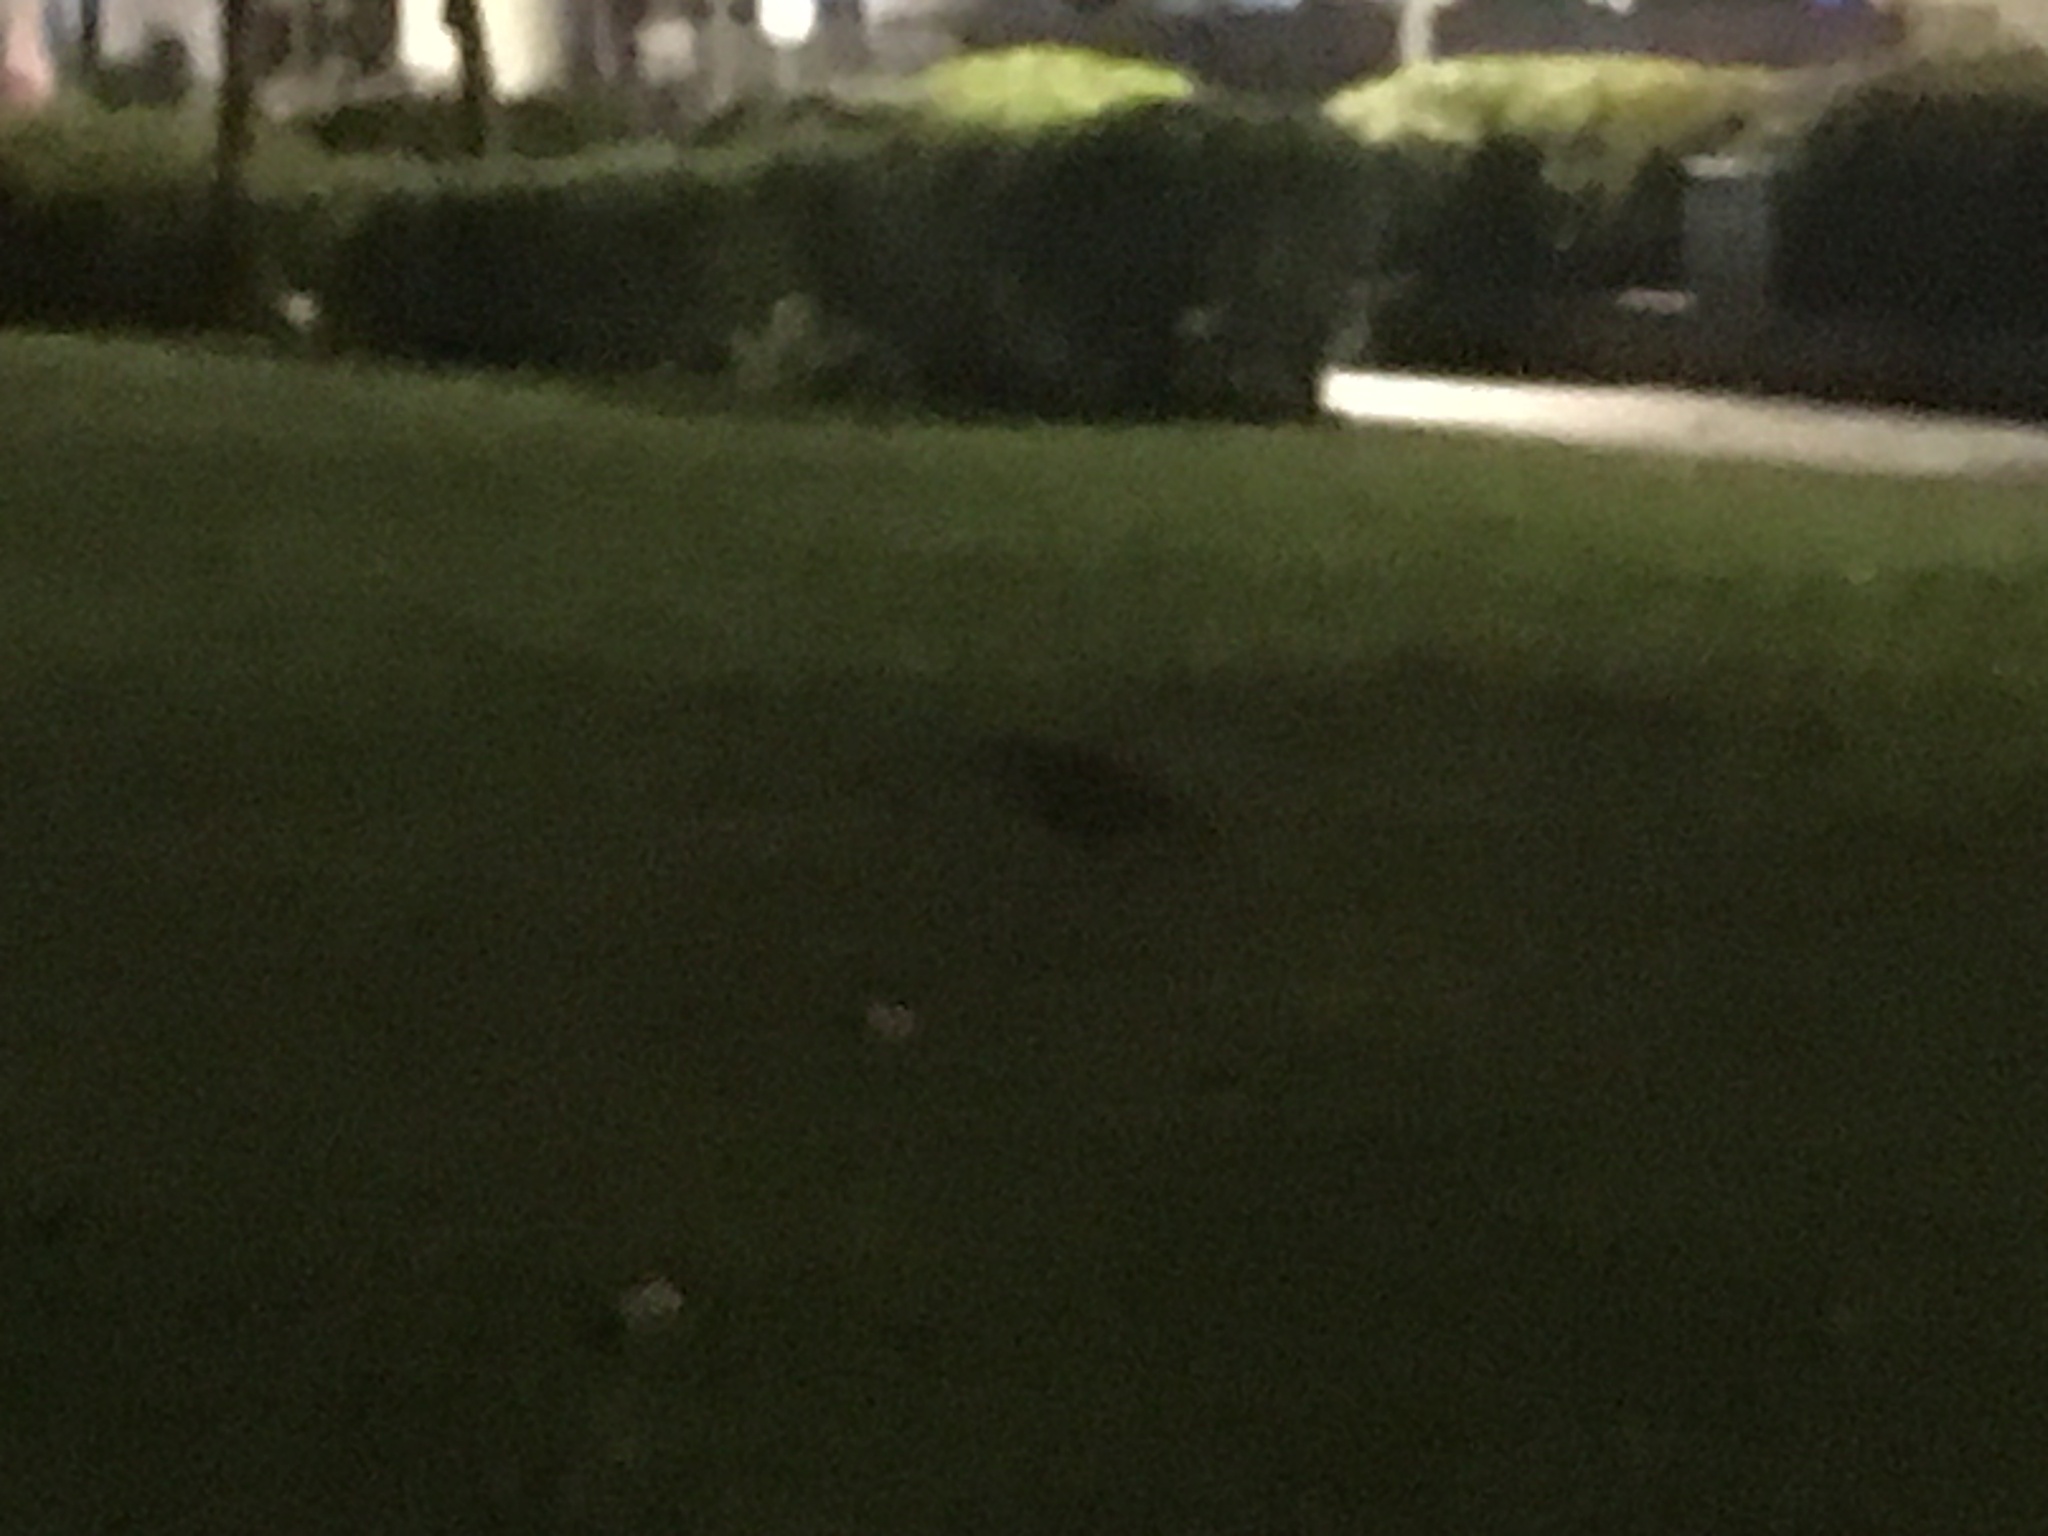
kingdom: Animalia
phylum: Chordata
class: Aves
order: Pelecaniformes
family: Ardeidae
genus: Gorsachius
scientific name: Gorsachius melanolophus
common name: Malayan night heron
